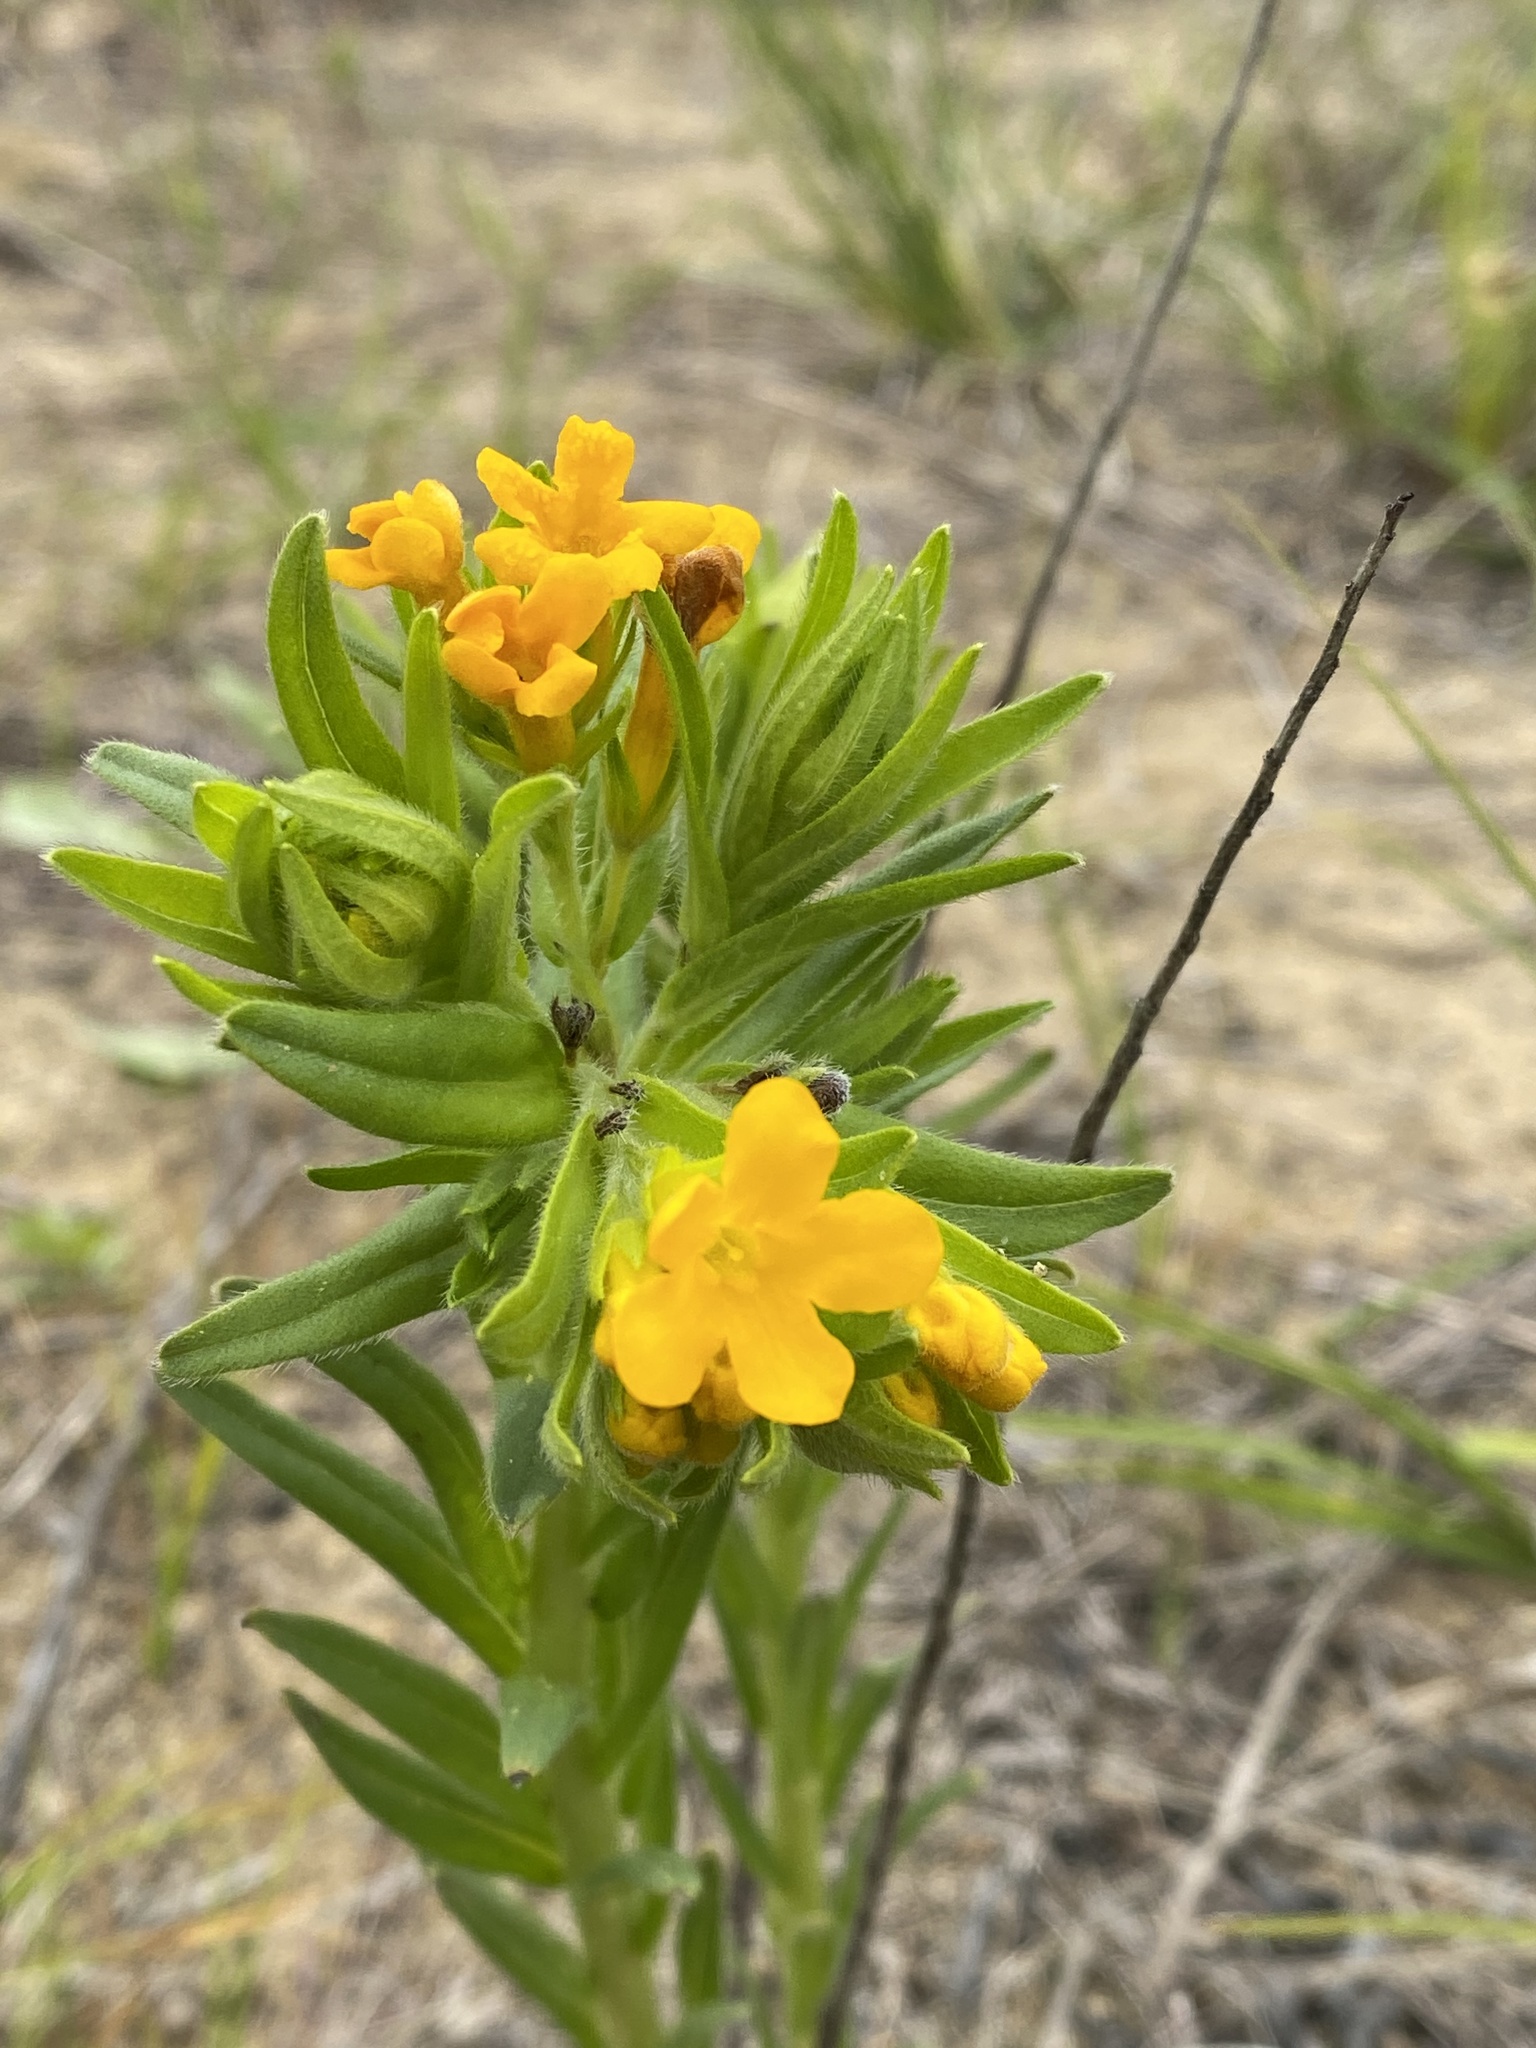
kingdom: Plantae
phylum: Tracheophyta
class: Magnoliopsida
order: Boraginales
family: Boraginaceae
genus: Lithospermum
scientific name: Lithospermum caroliniense
